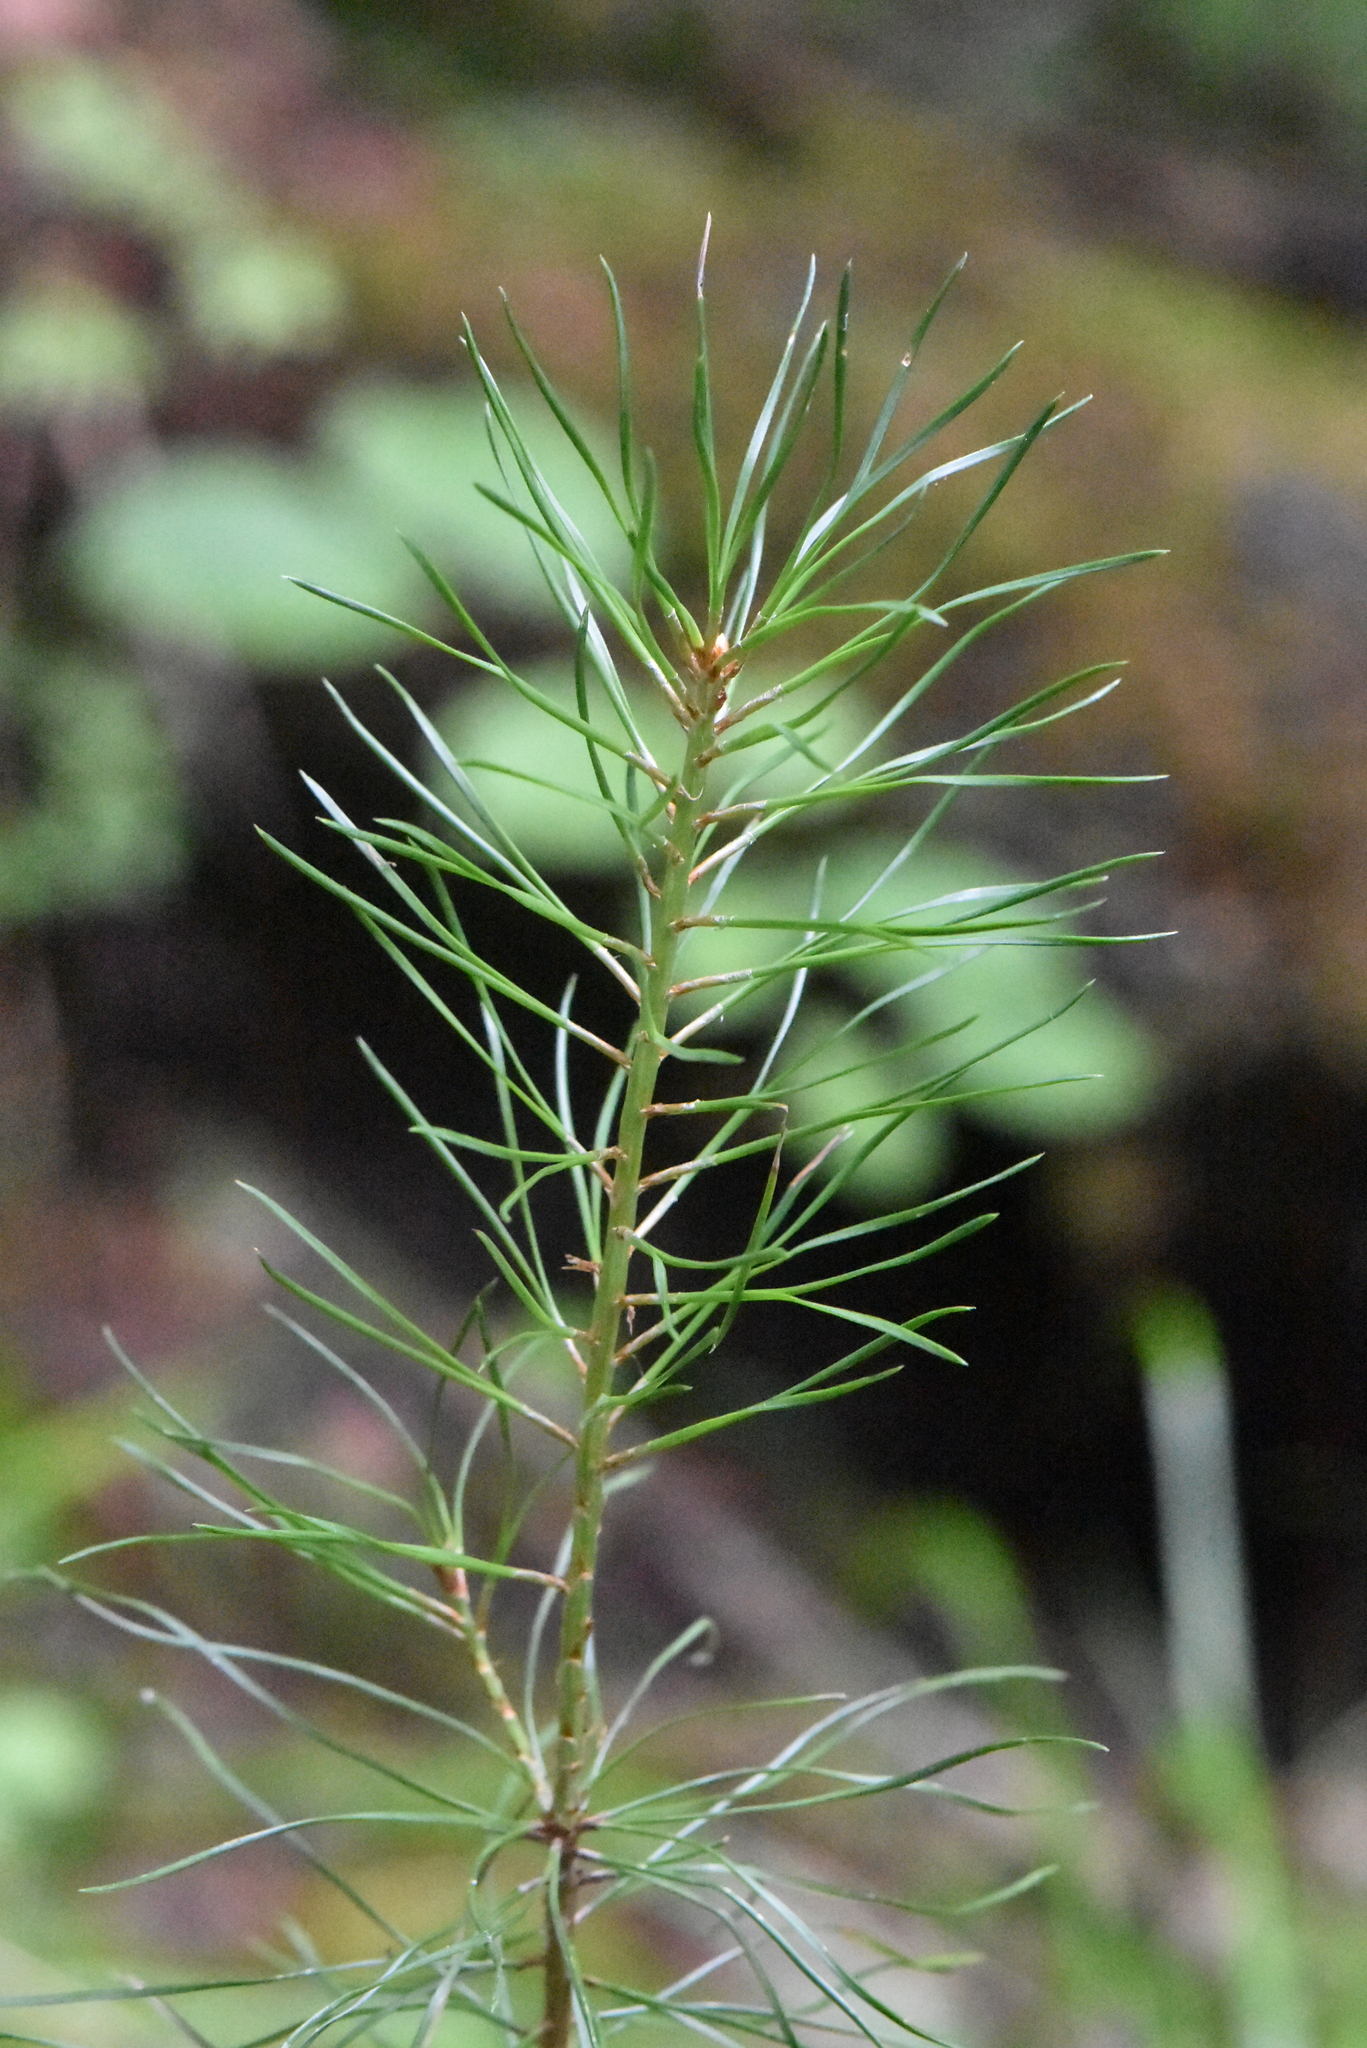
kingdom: Plantae
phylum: Tracheophyta
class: Pinopsida
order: Pinales
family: Pinaceae
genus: Pinus
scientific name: Pinus sylvestris
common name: Scots pine
